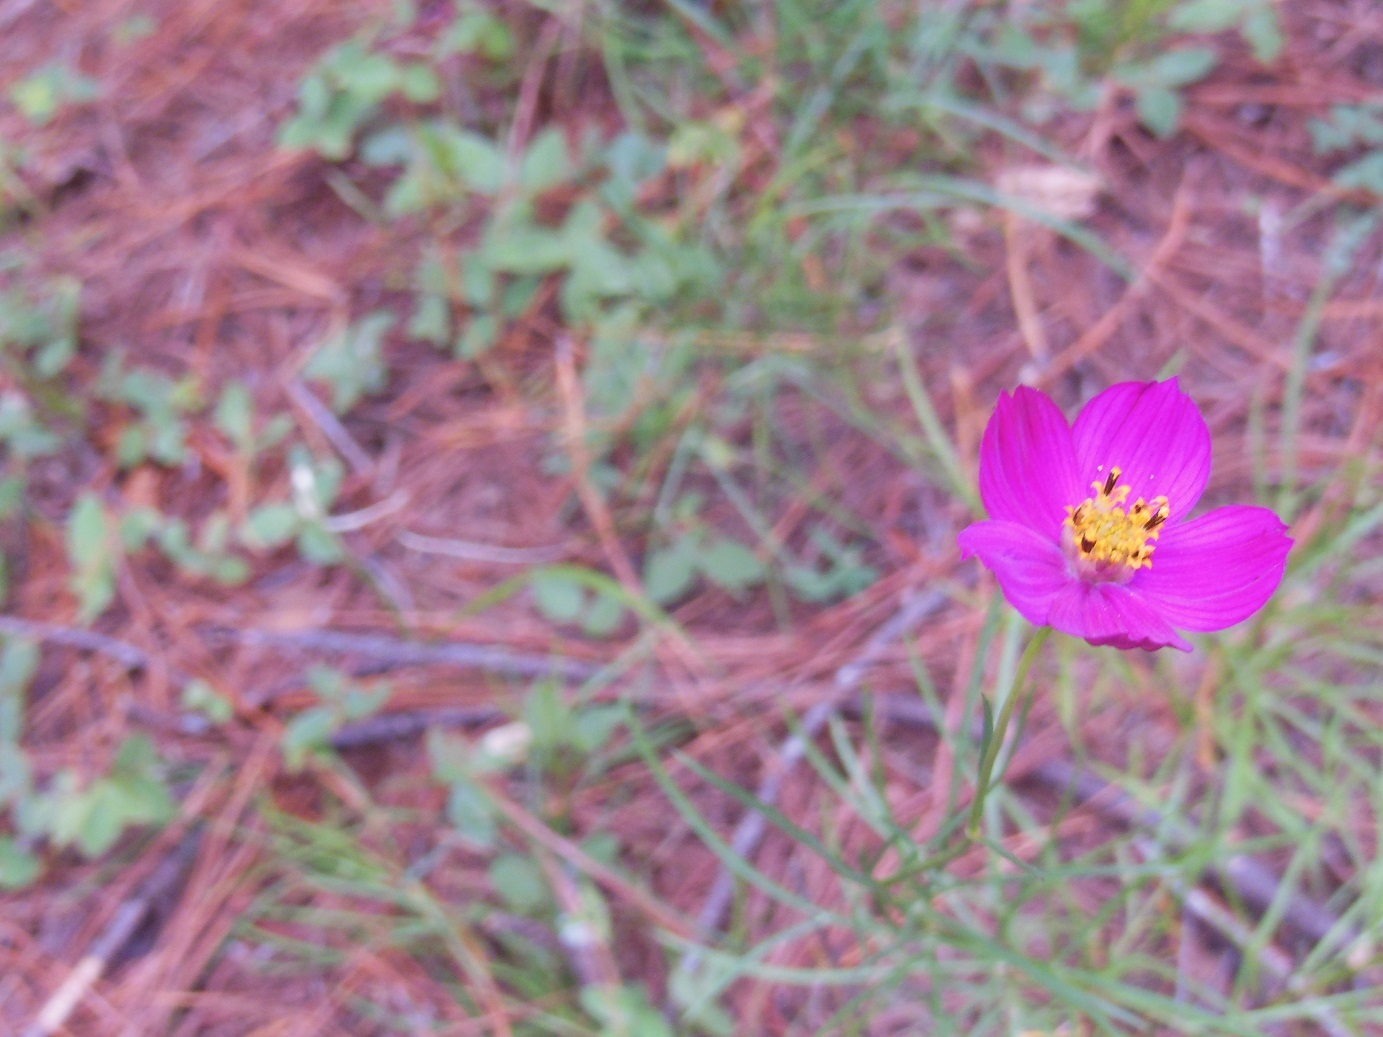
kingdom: Plantae
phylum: Tracheophyta
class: Magnoliopsida
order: Asterales
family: Asteraceae
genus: Cosmos
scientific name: Cosmos crithmifolius
